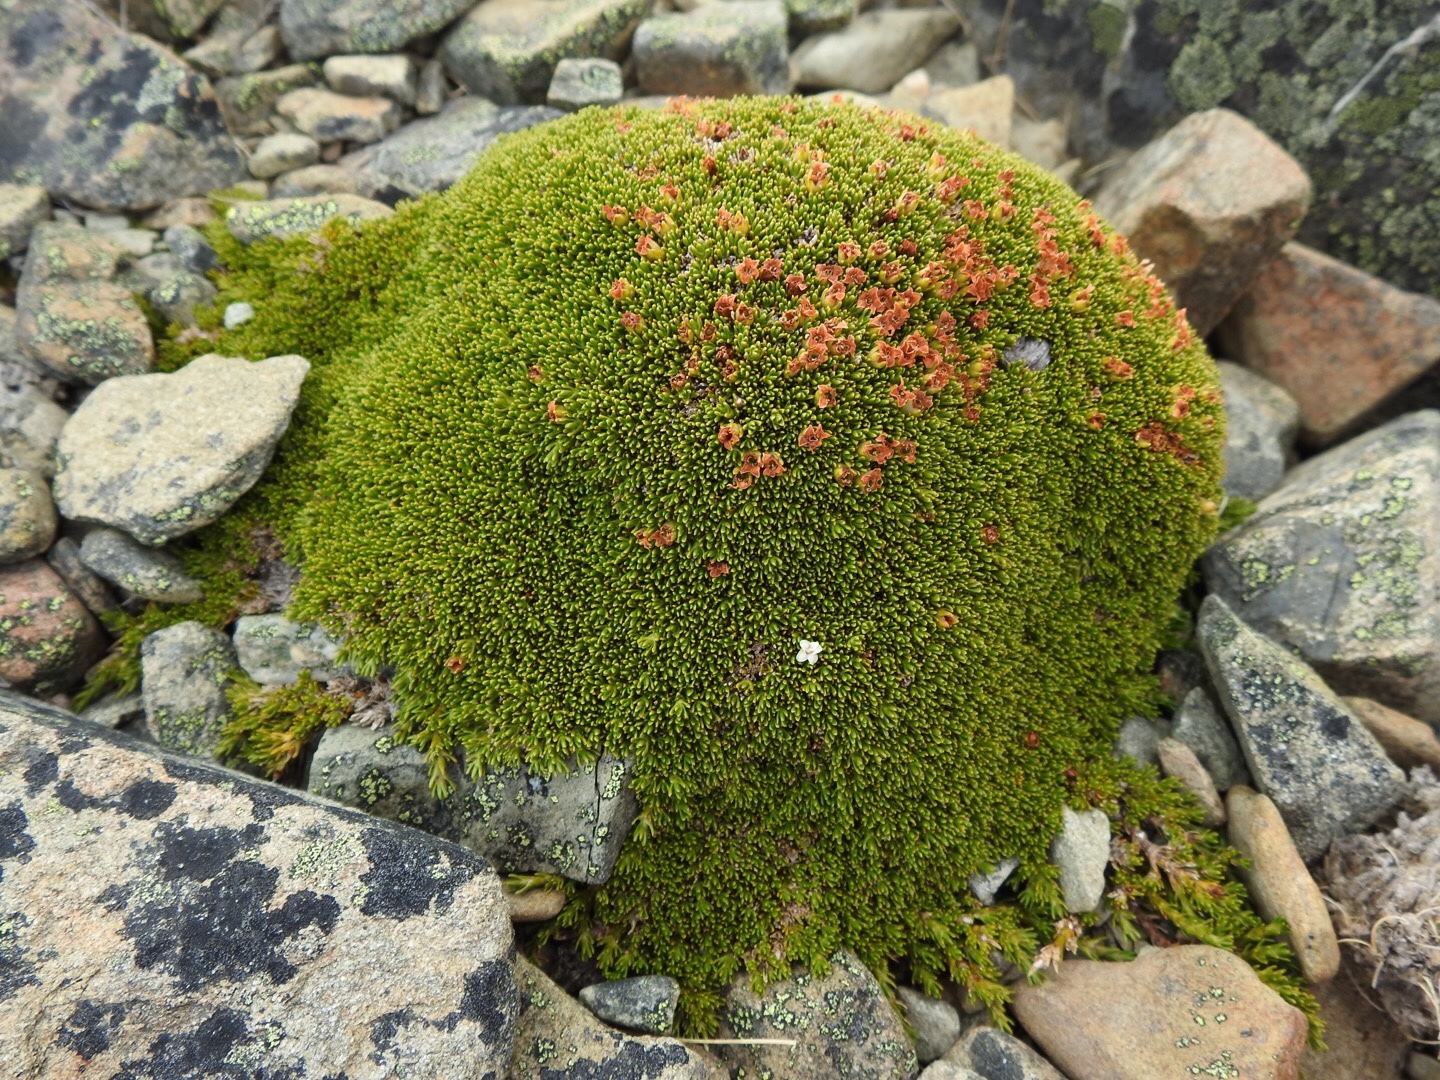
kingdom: Plantae
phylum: Tracheophyta
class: Magnoliopsida
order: Ericales
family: Ericaceae
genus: Dracophyllum
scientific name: Dracophyllum muscoides
